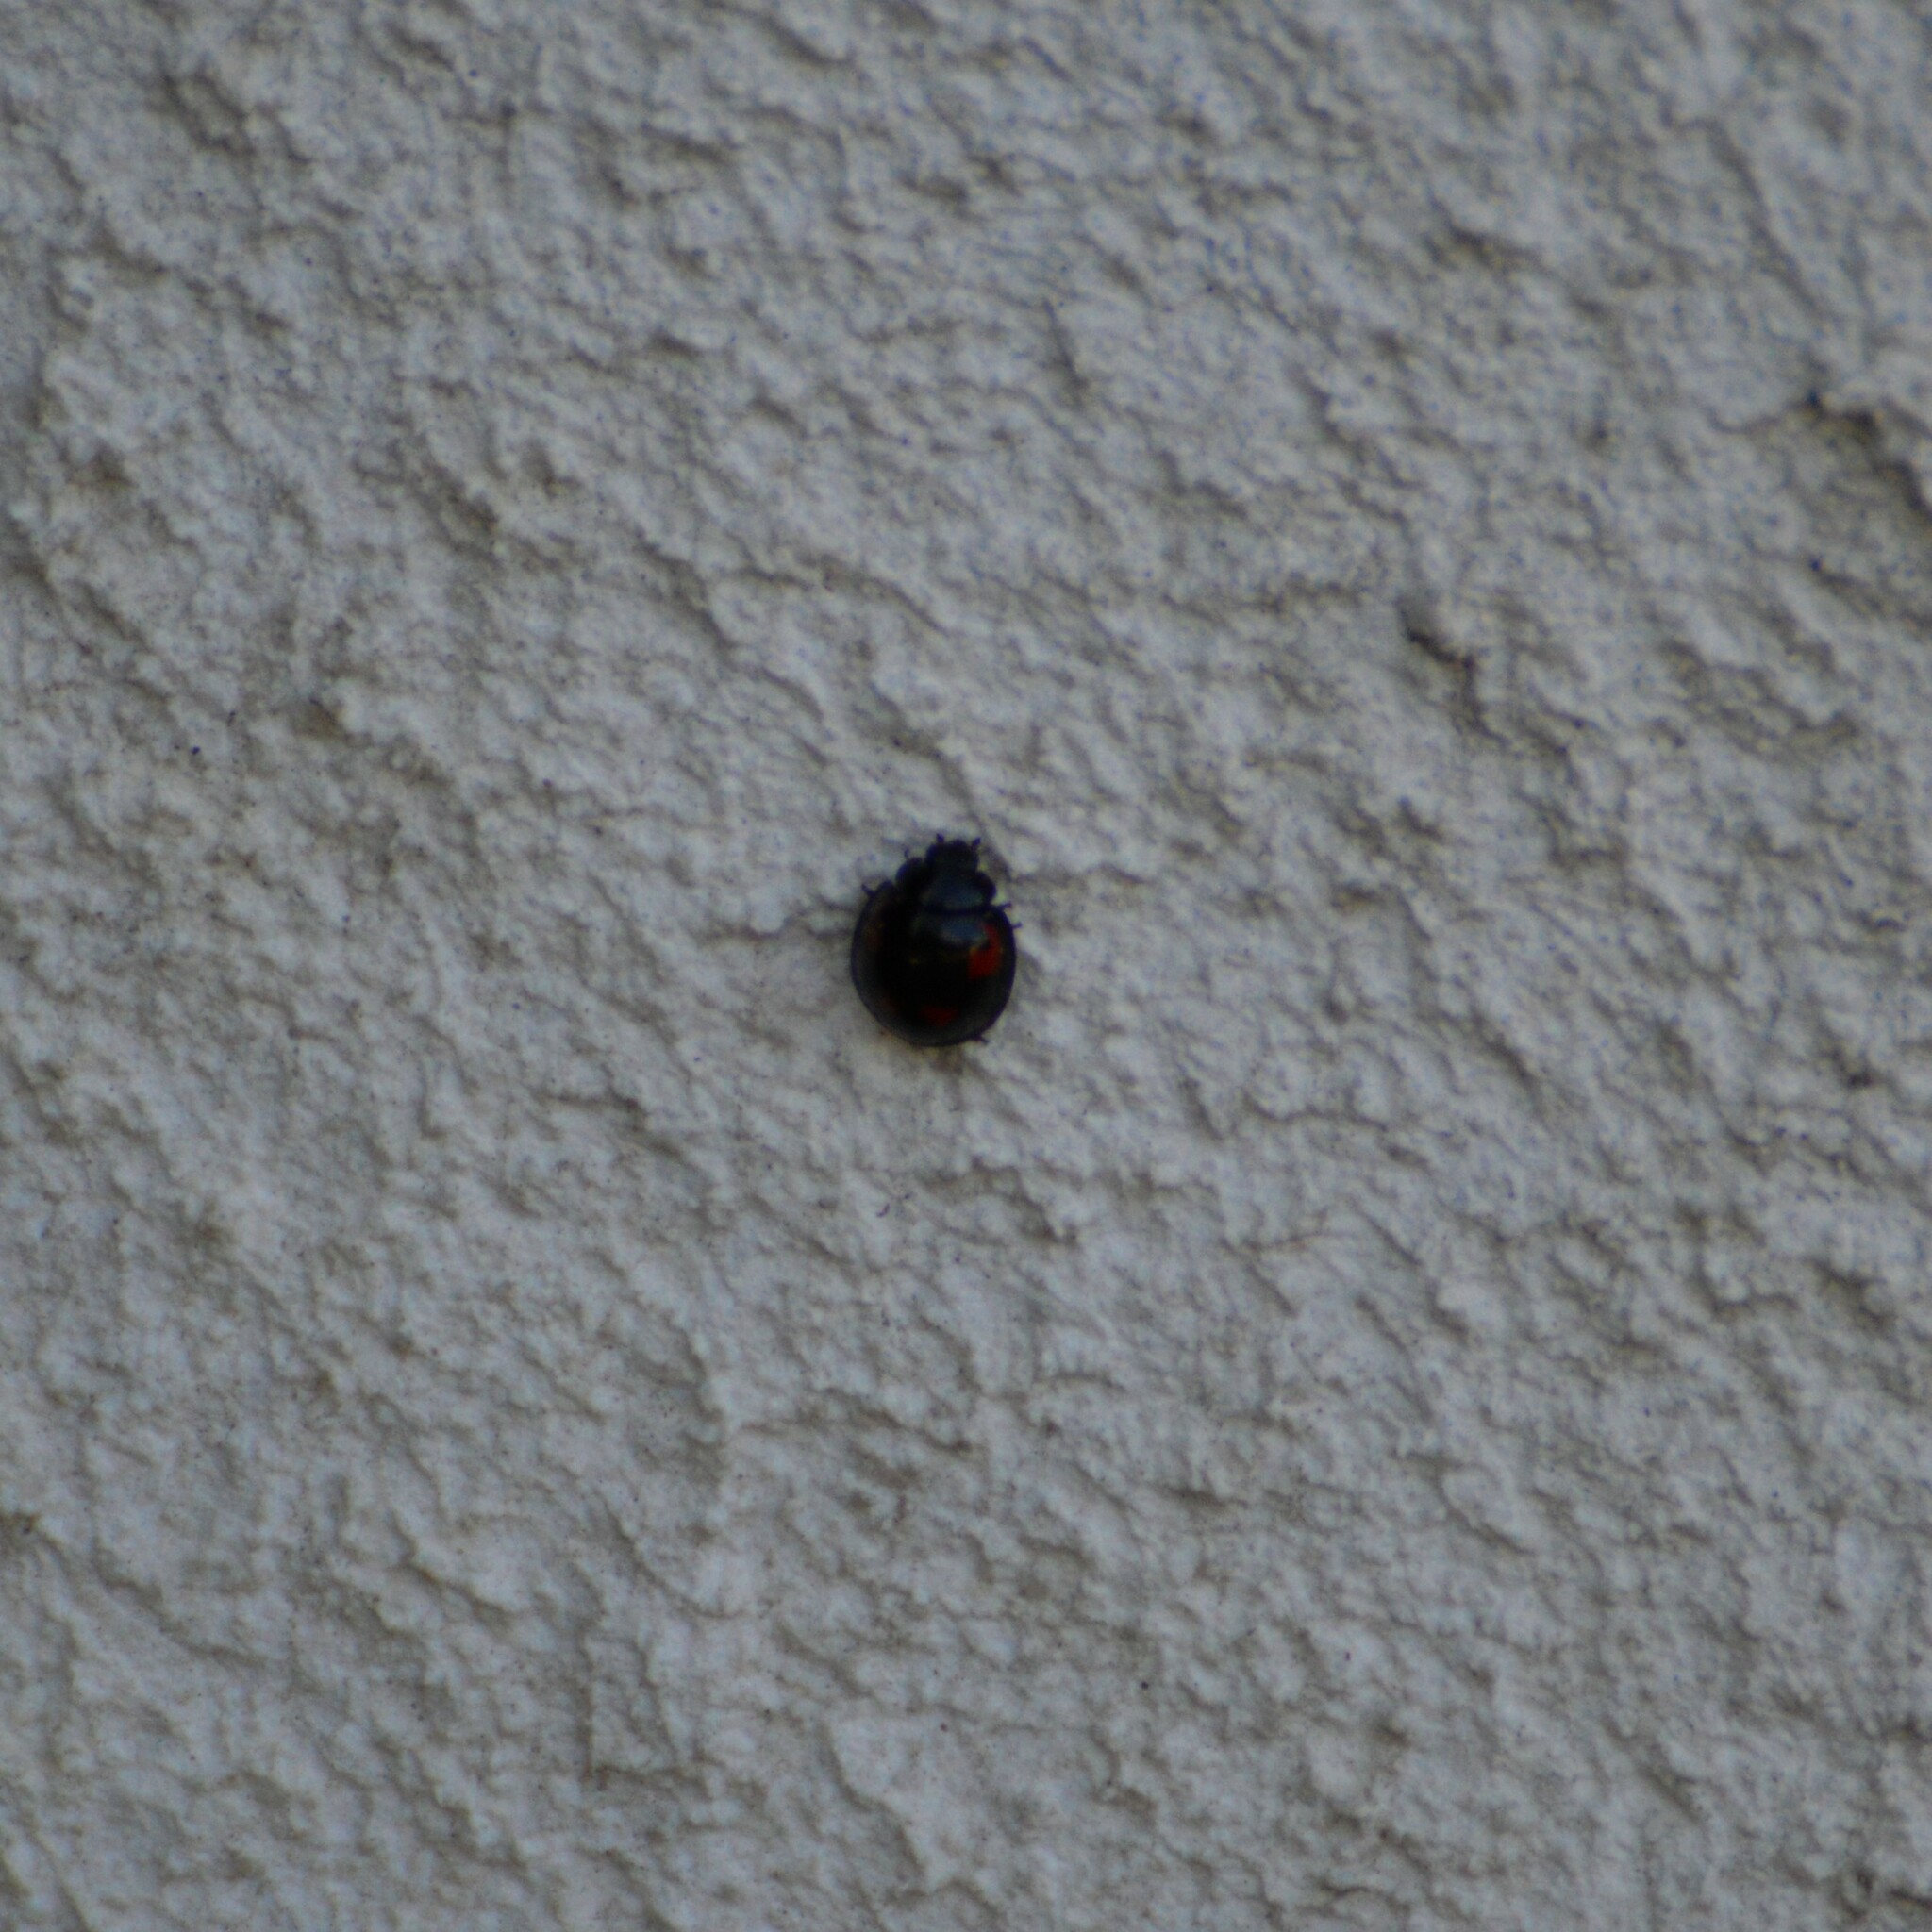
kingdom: Animalia
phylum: Arthropoda
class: Insecta
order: Coleoptera
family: Coccinellidae
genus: Brumus
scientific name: Brumus quadripustulatus
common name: Ladybird beetle
